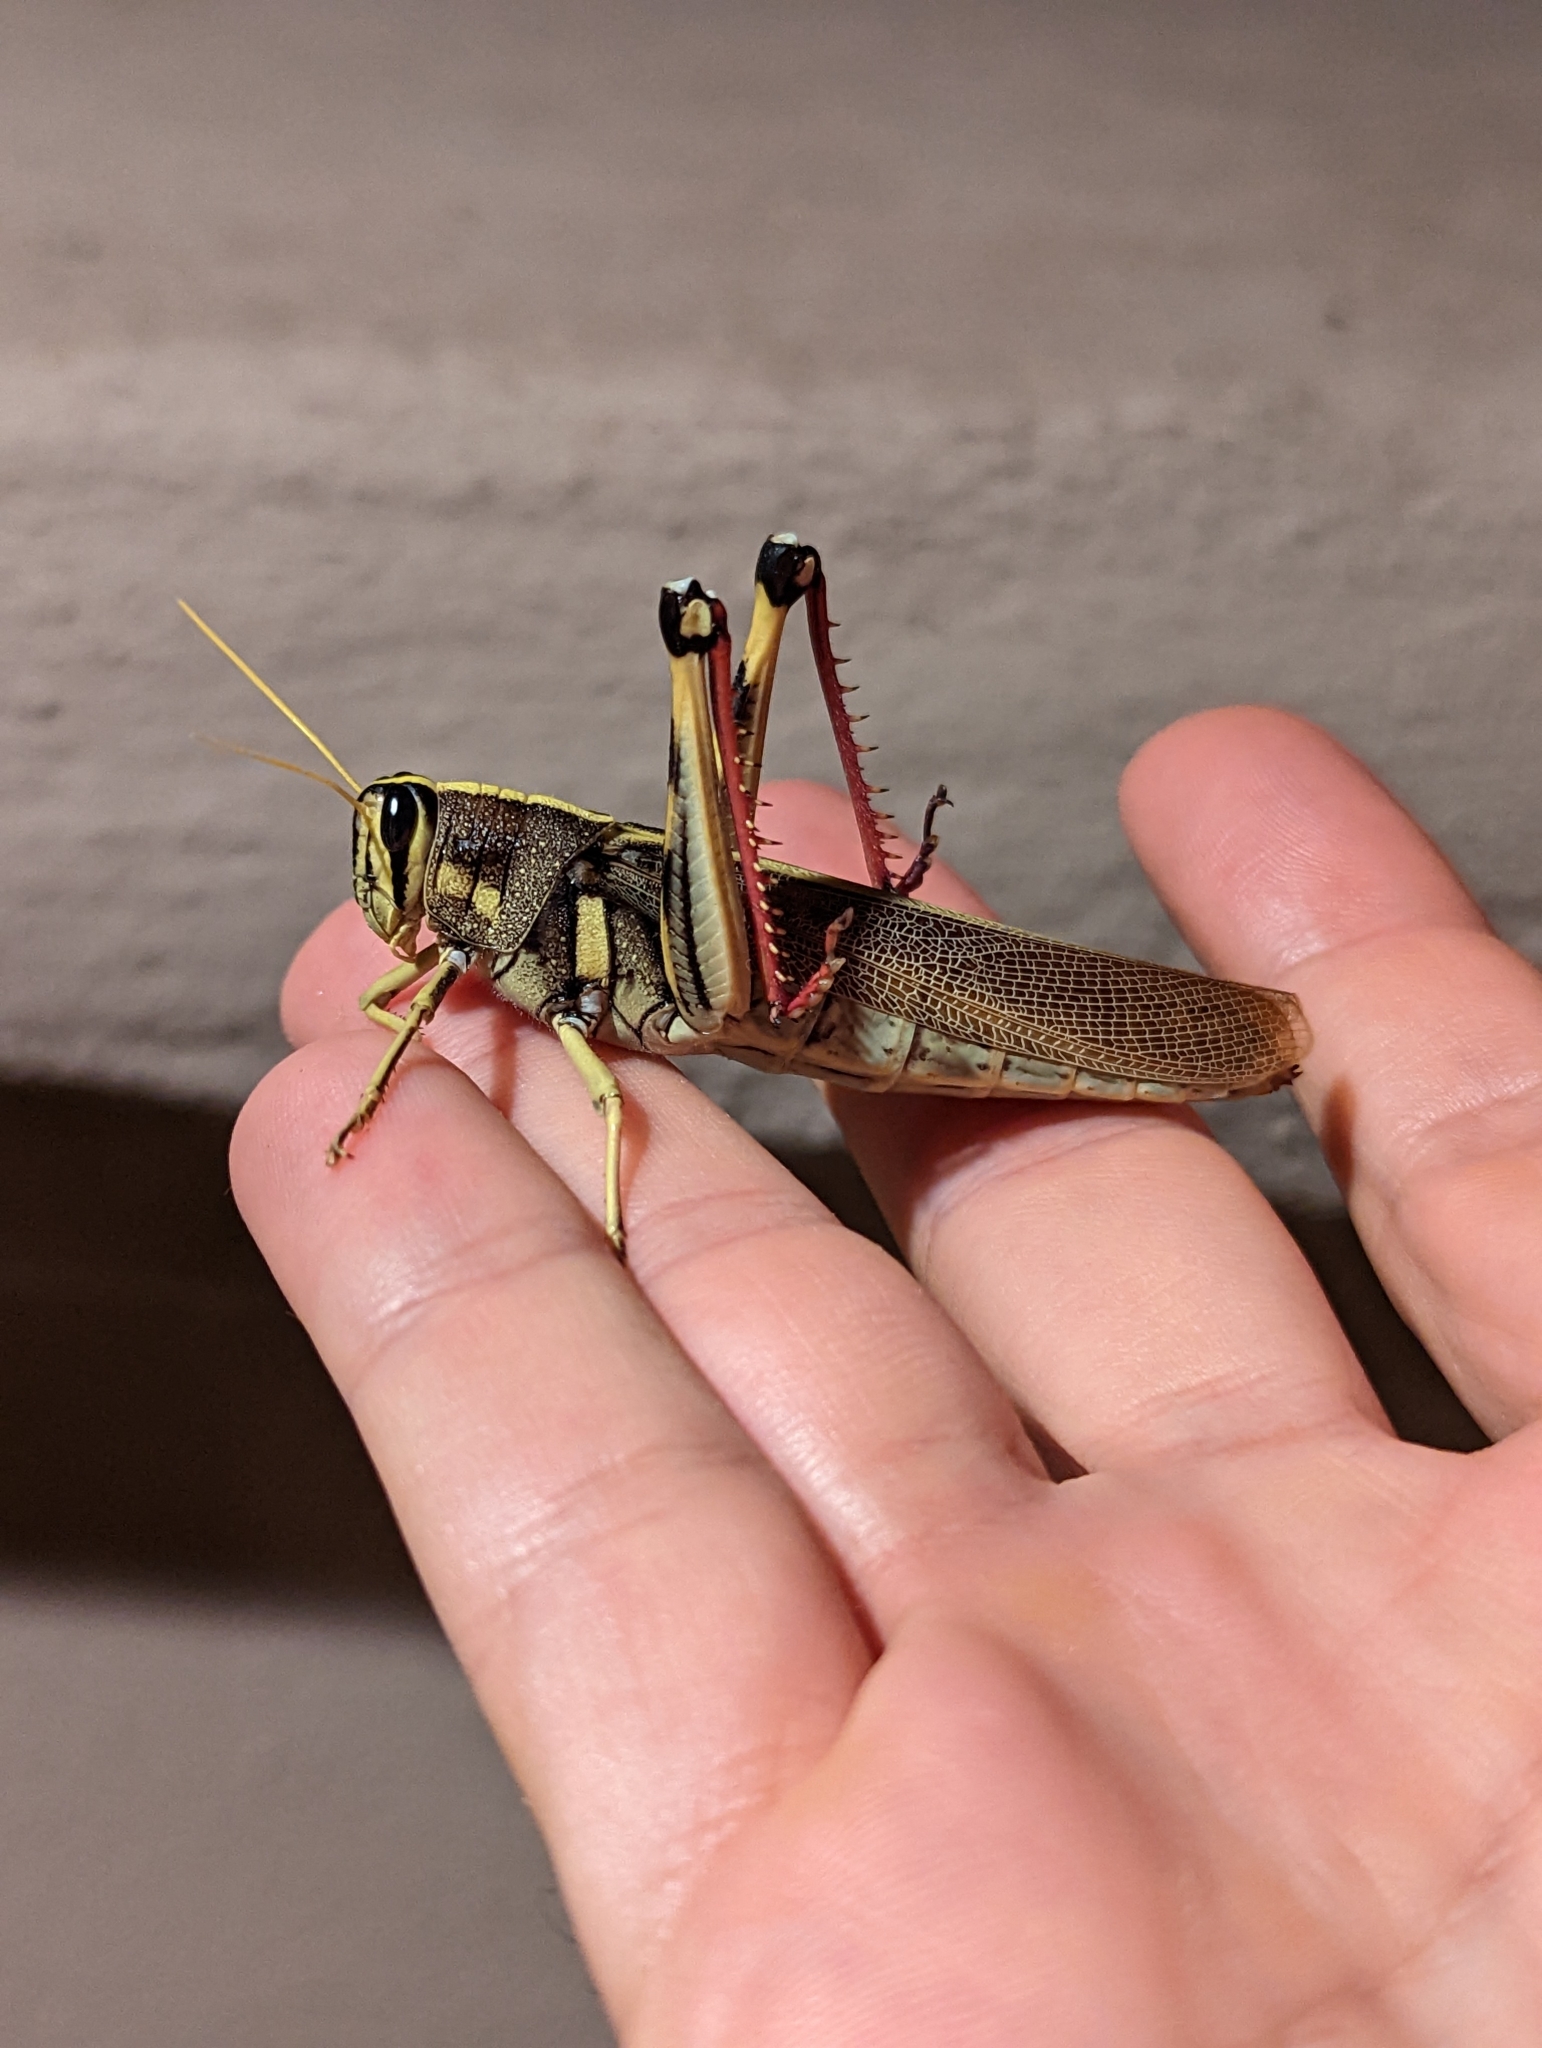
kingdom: Animalia
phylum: Arthropoda
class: Insecta
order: Orthoptera
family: Acrididae
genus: Schistocerca
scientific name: Schistocerca albolineata
